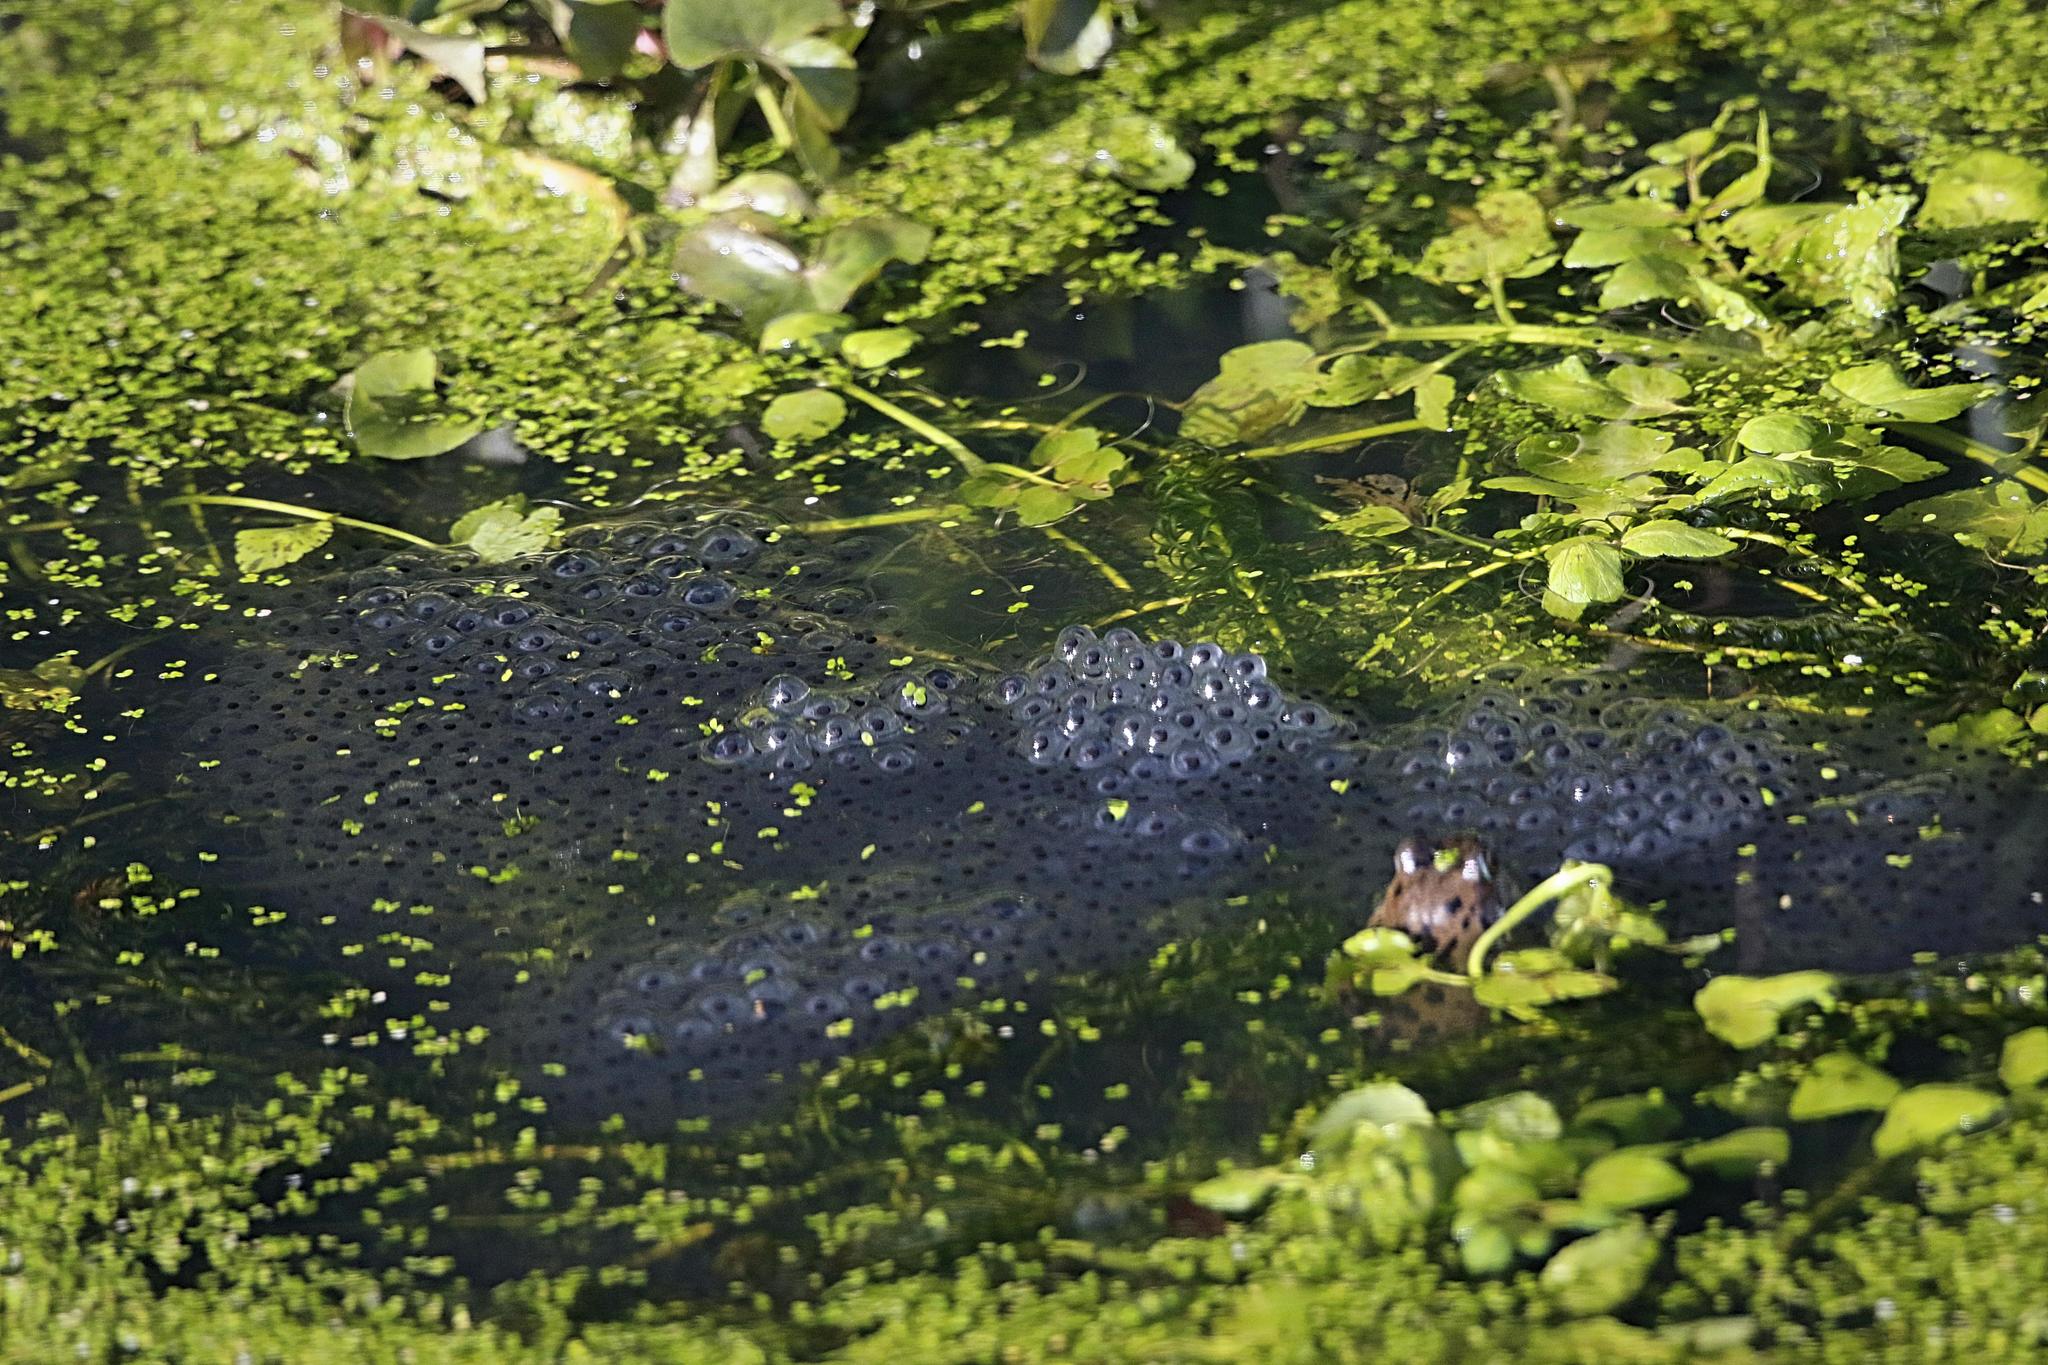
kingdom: Animalia
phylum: Chordata
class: Amphibia
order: Anura
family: Ranidae
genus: Rana
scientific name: Rana temporaria
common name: Common frog
